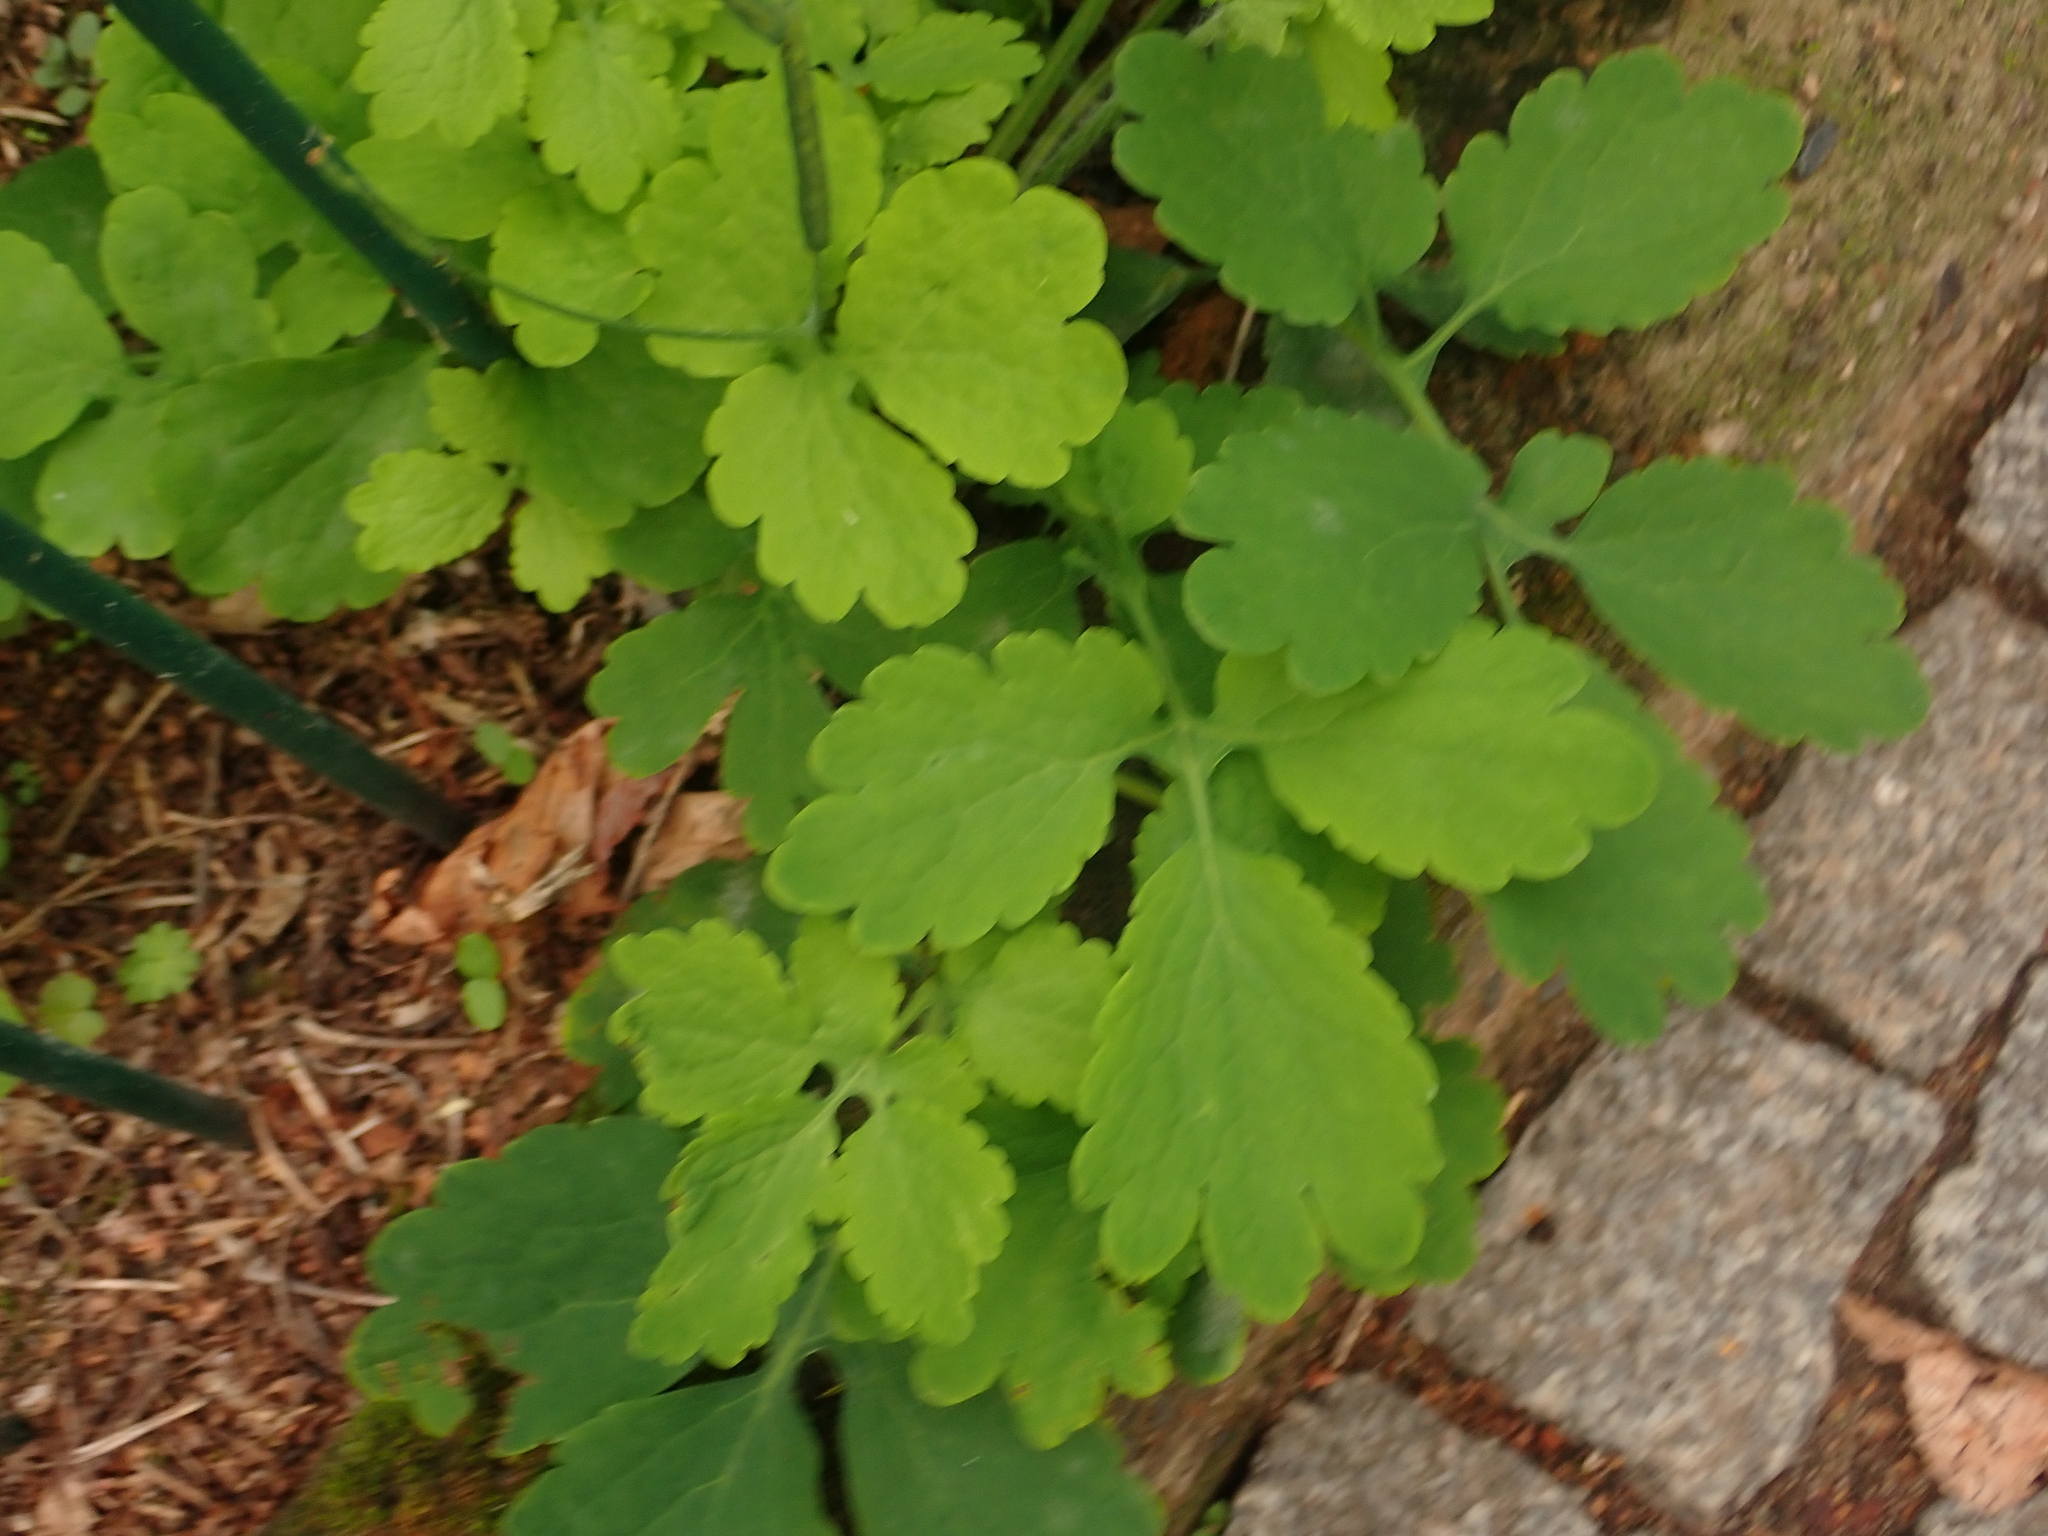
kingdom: Plantae
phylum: Tracheophyta
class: Magnoliopsida
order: Ranunculales
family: Papaveraceae
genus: Chelidonium
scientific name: Chelidonium majus
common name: Greater celandine
